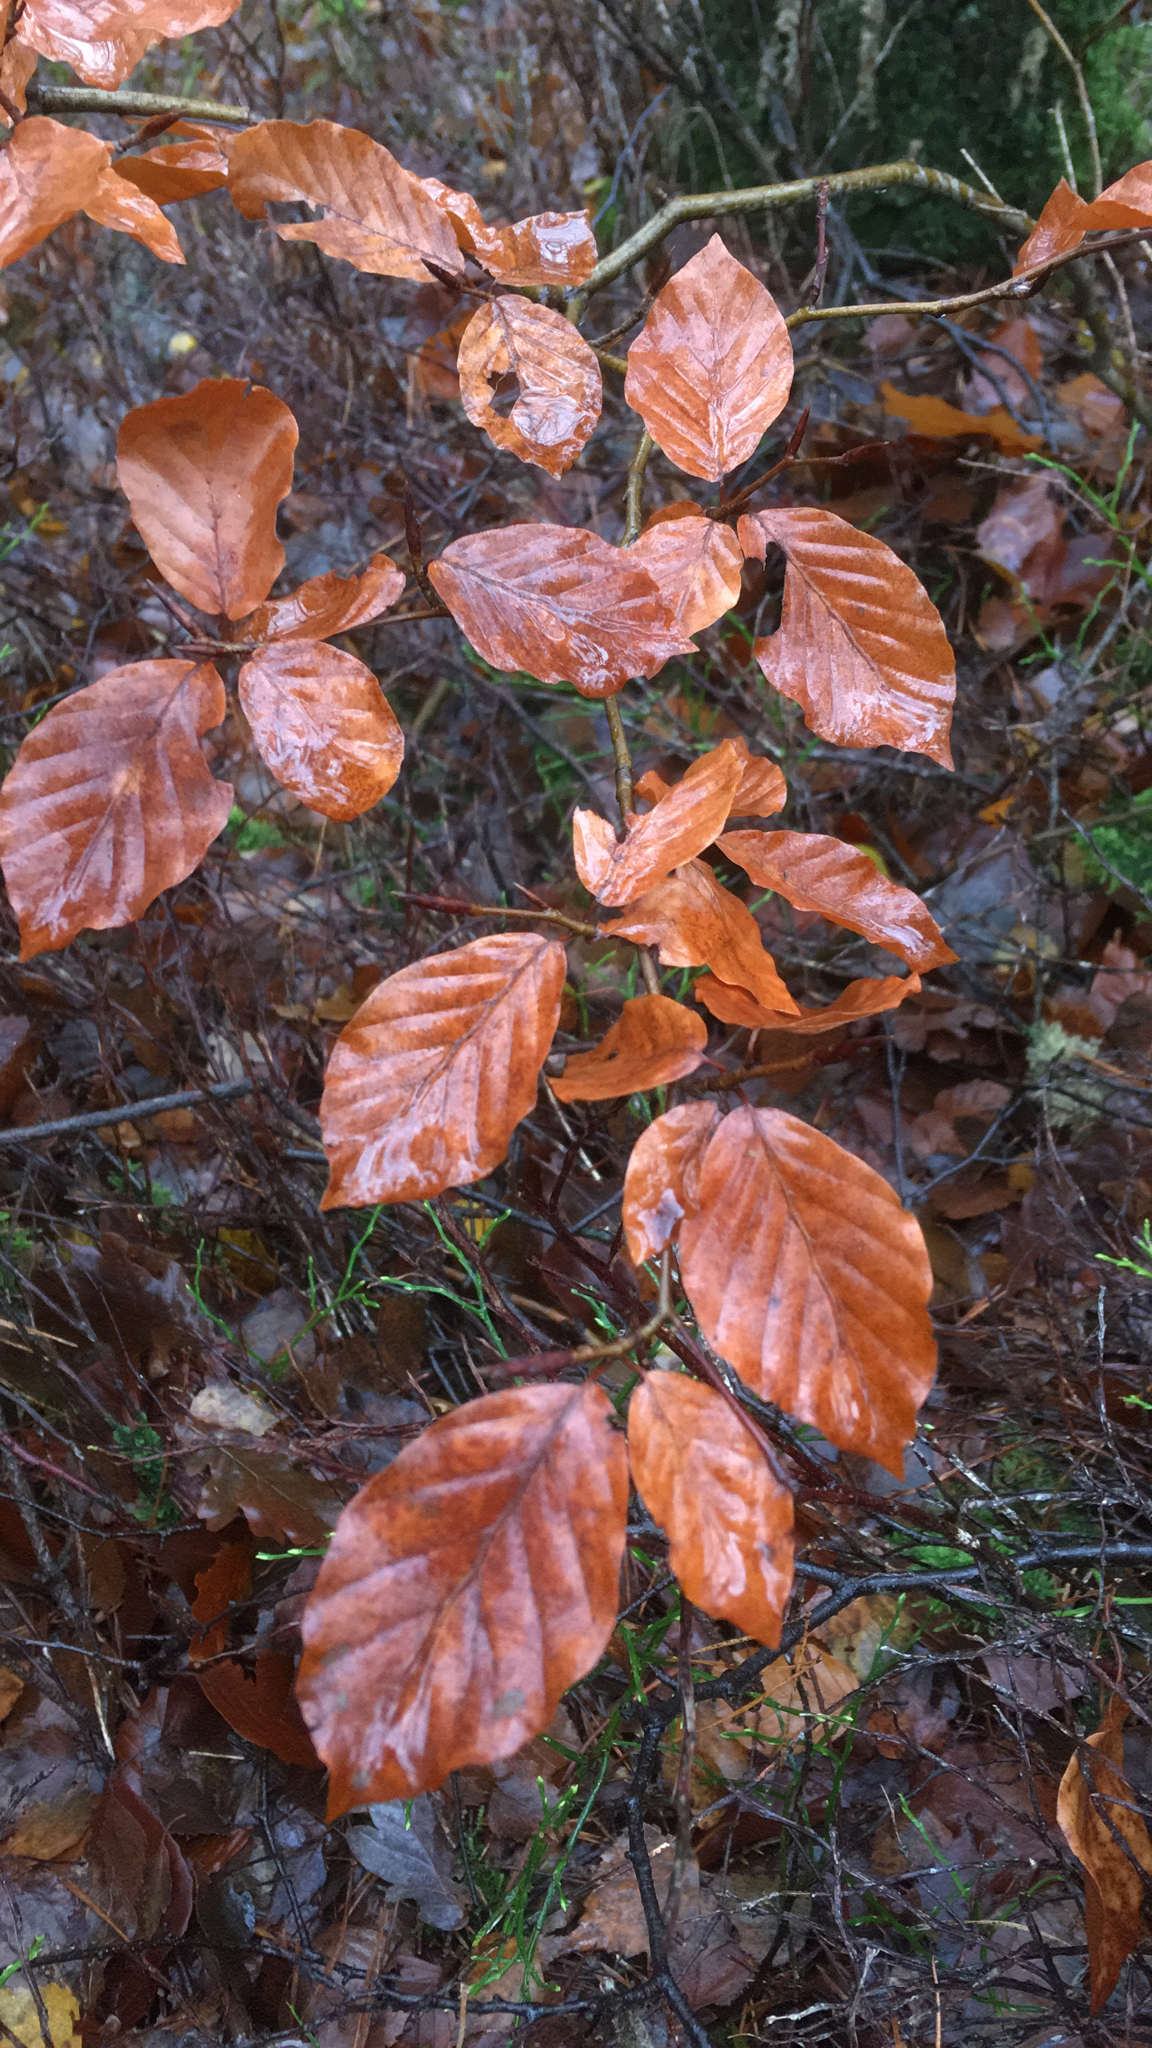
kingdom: Plantae
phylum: Tracheophyta
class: Magnoliopsida
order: Fagales
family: Fagaceae
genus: Fagus
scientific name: Fagus sylvatica
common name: Beech
